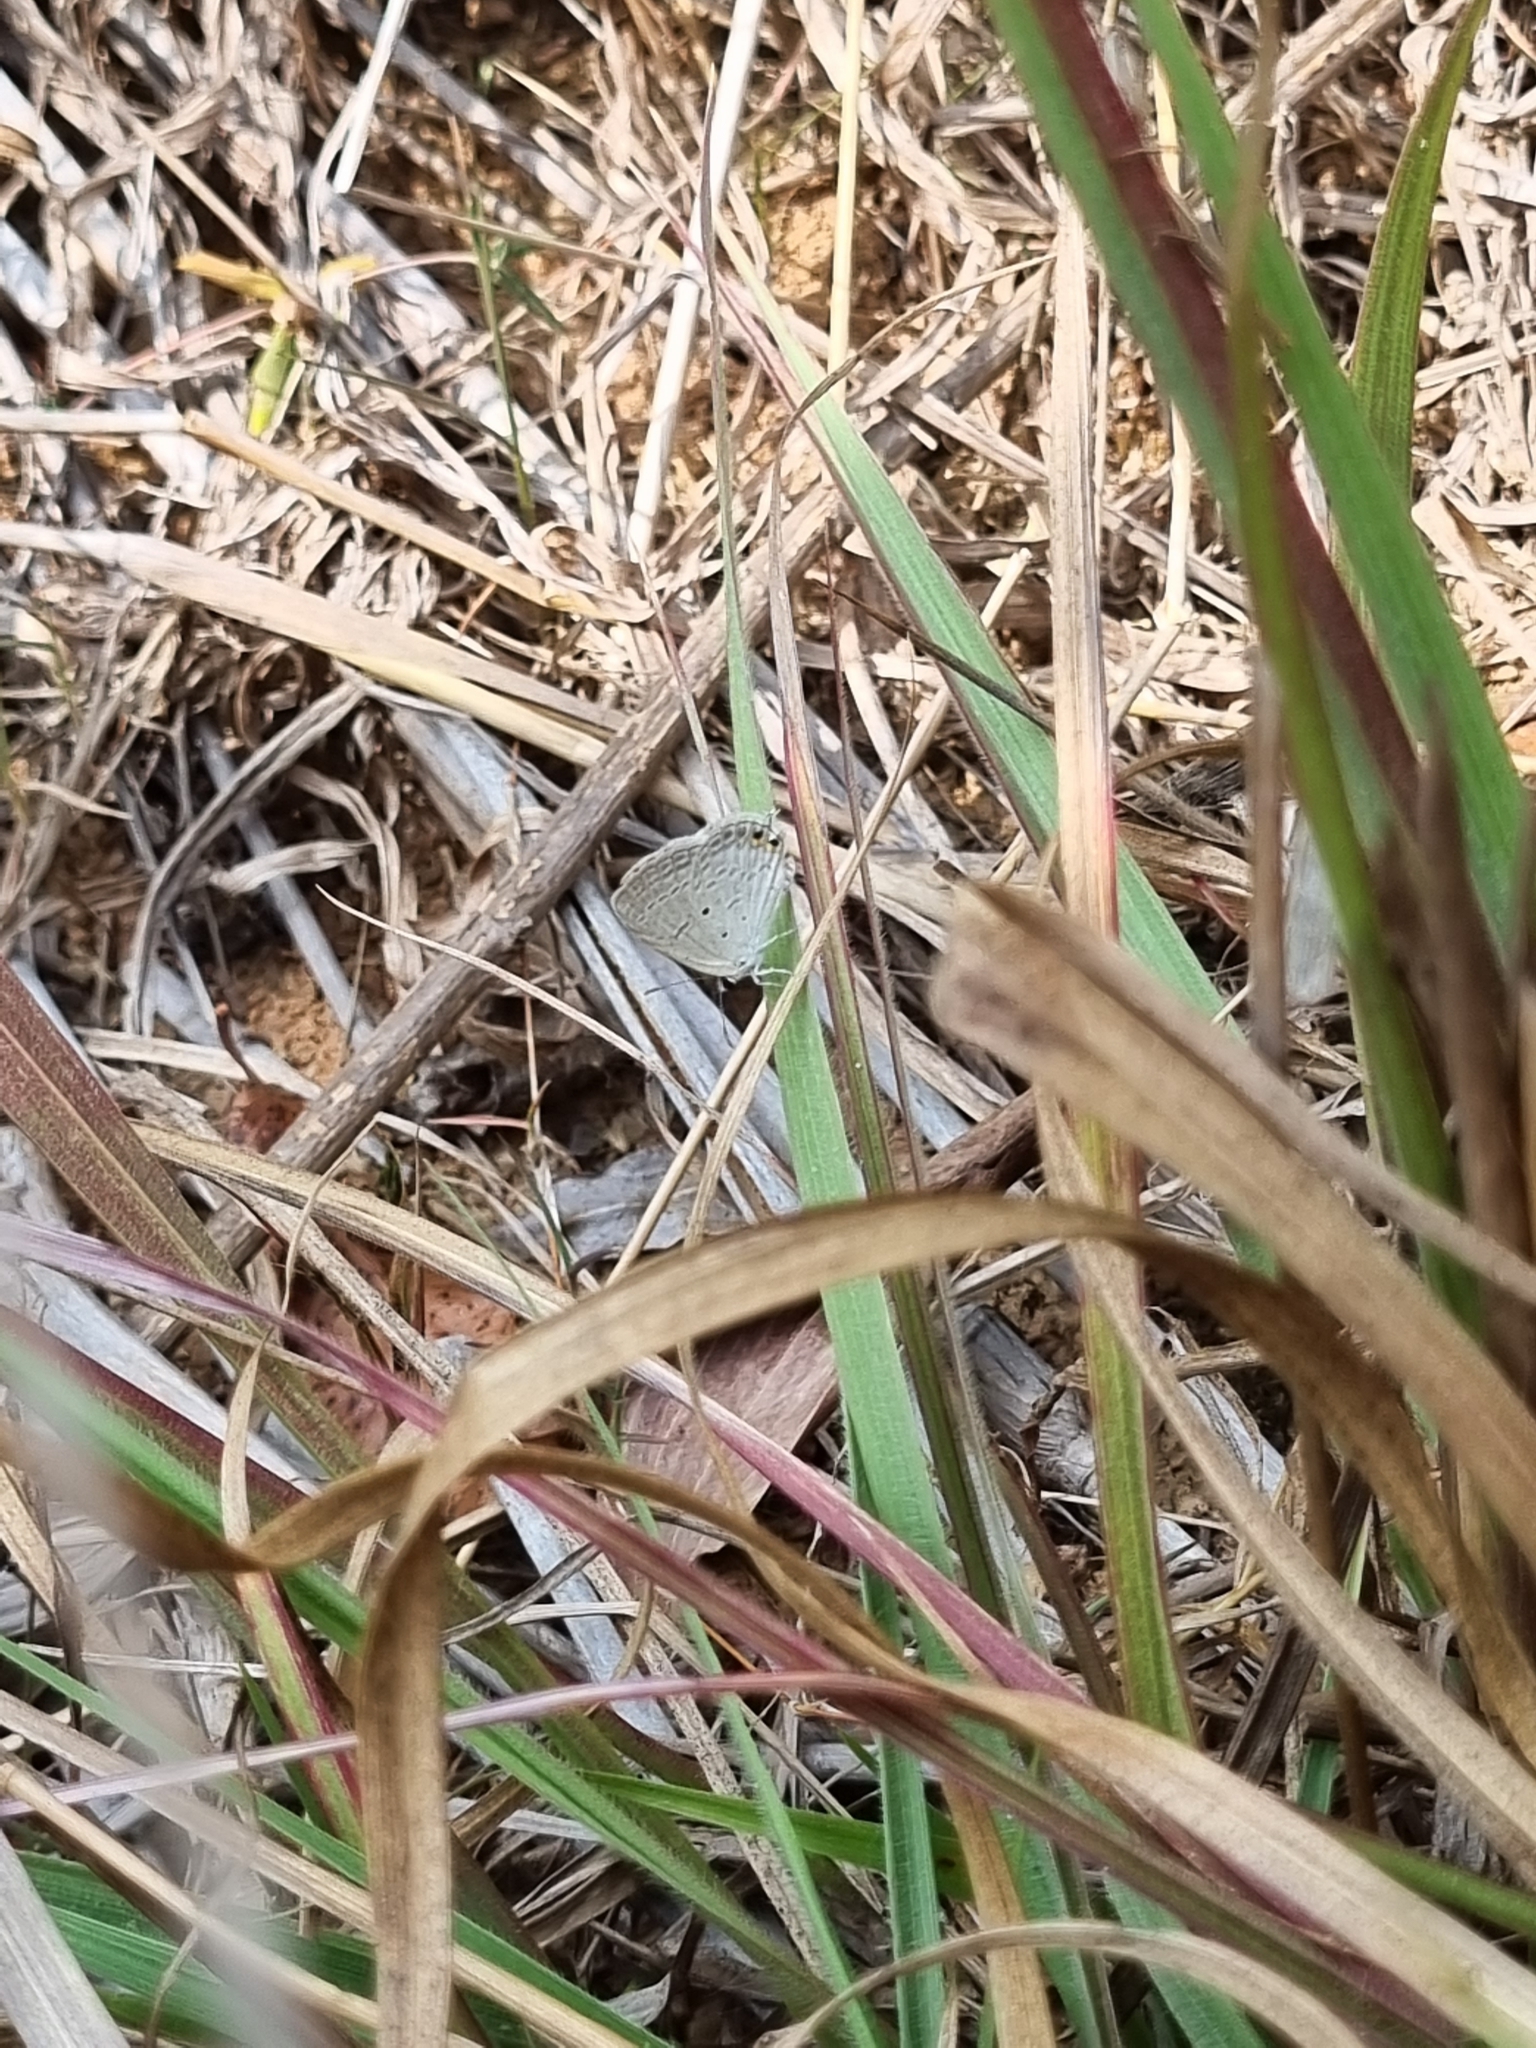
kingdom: Animalia
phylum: Arthropoda
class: Insecta
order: Lepidoptera
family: Lycaenidae
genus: Euchrysops
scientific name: Euchrysops cnejus
